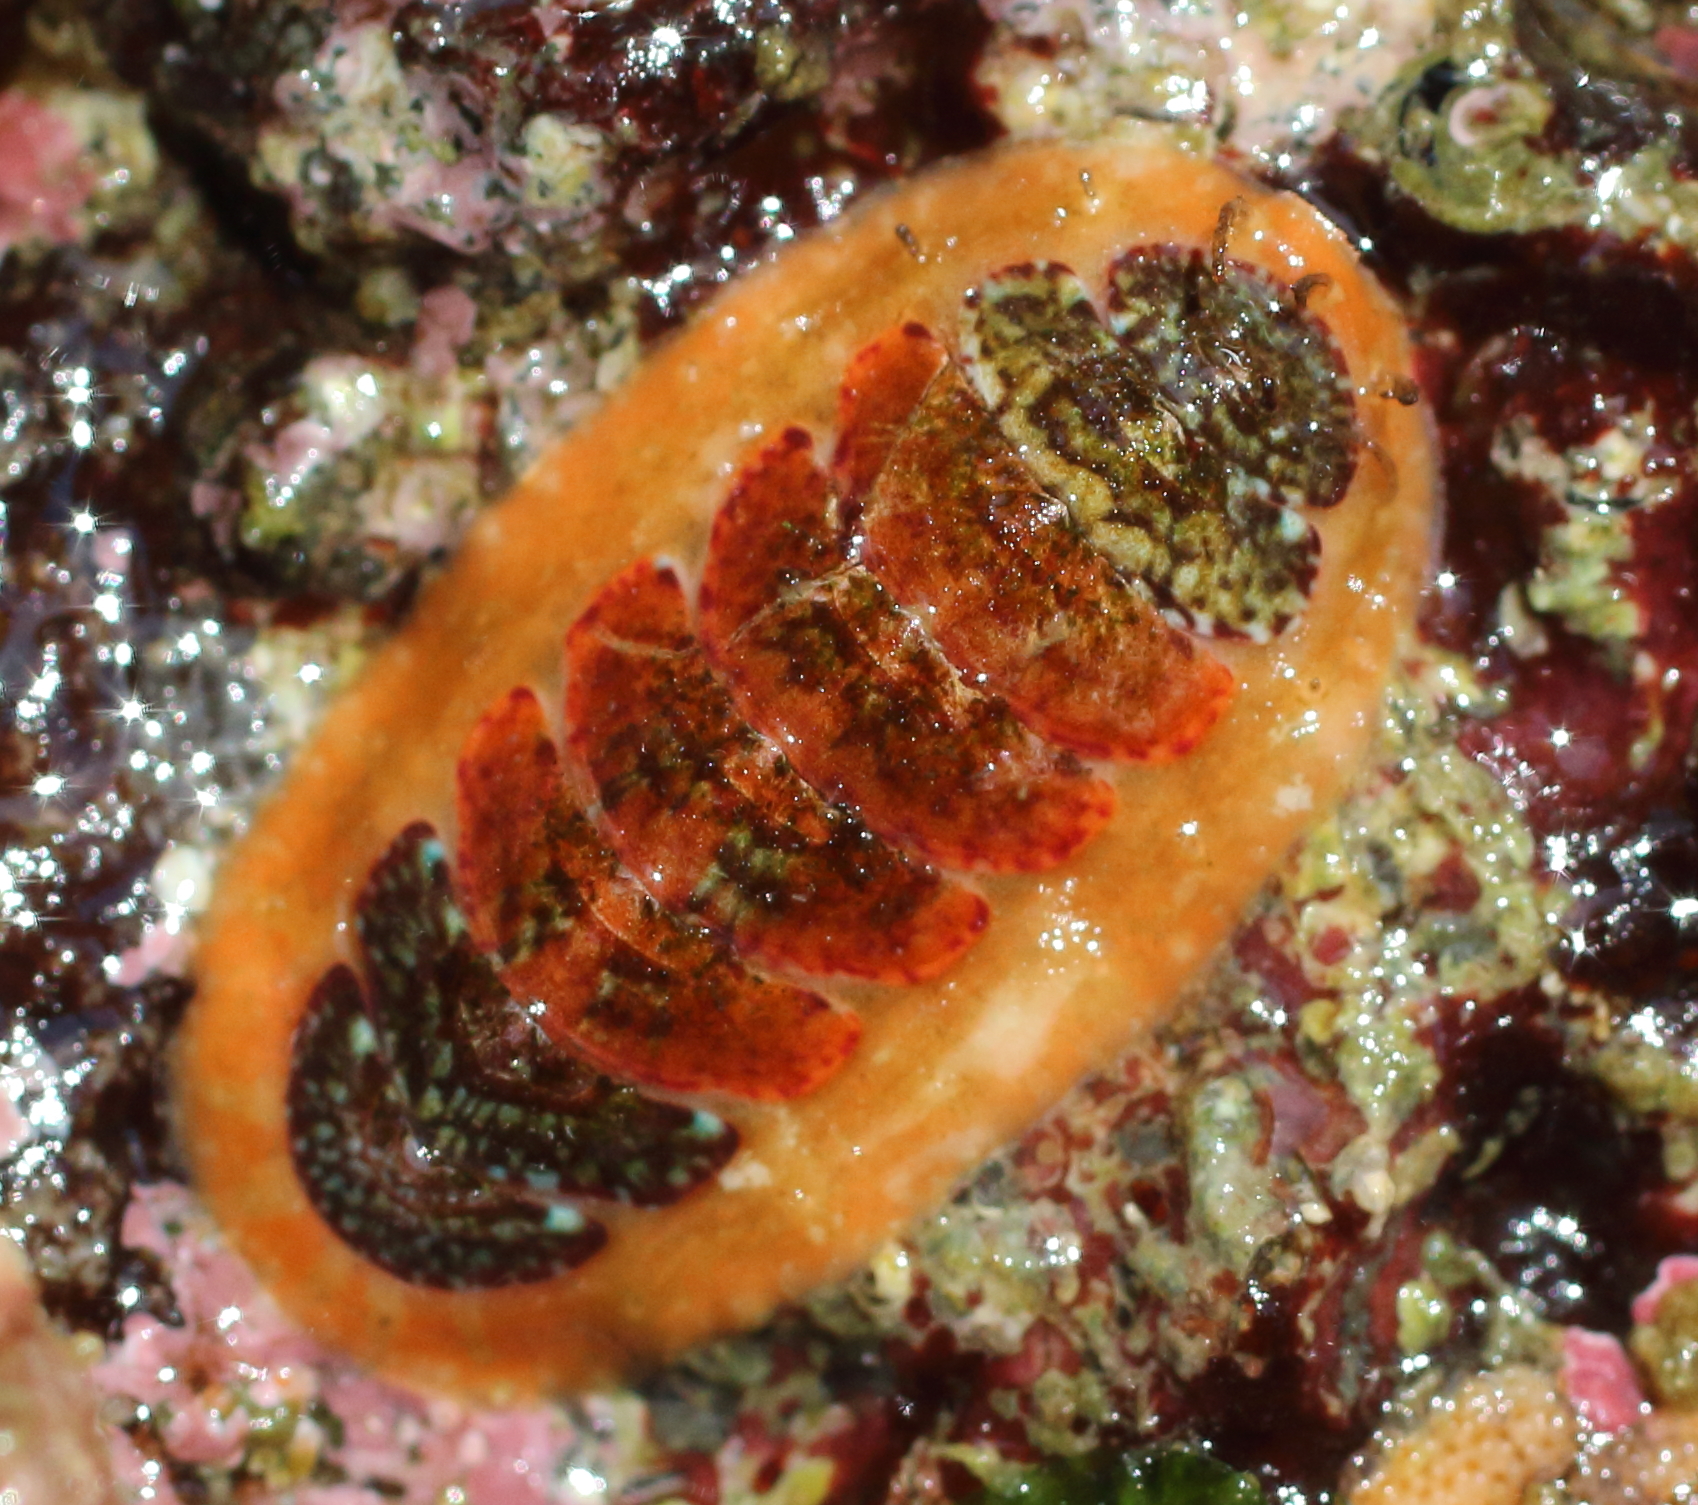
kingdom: Animalia
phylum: Mollusca
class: Polyplacophora
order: Chitonida
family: Mopaliidae
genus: Dendrochiton
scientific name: Dendrochiton flectens
